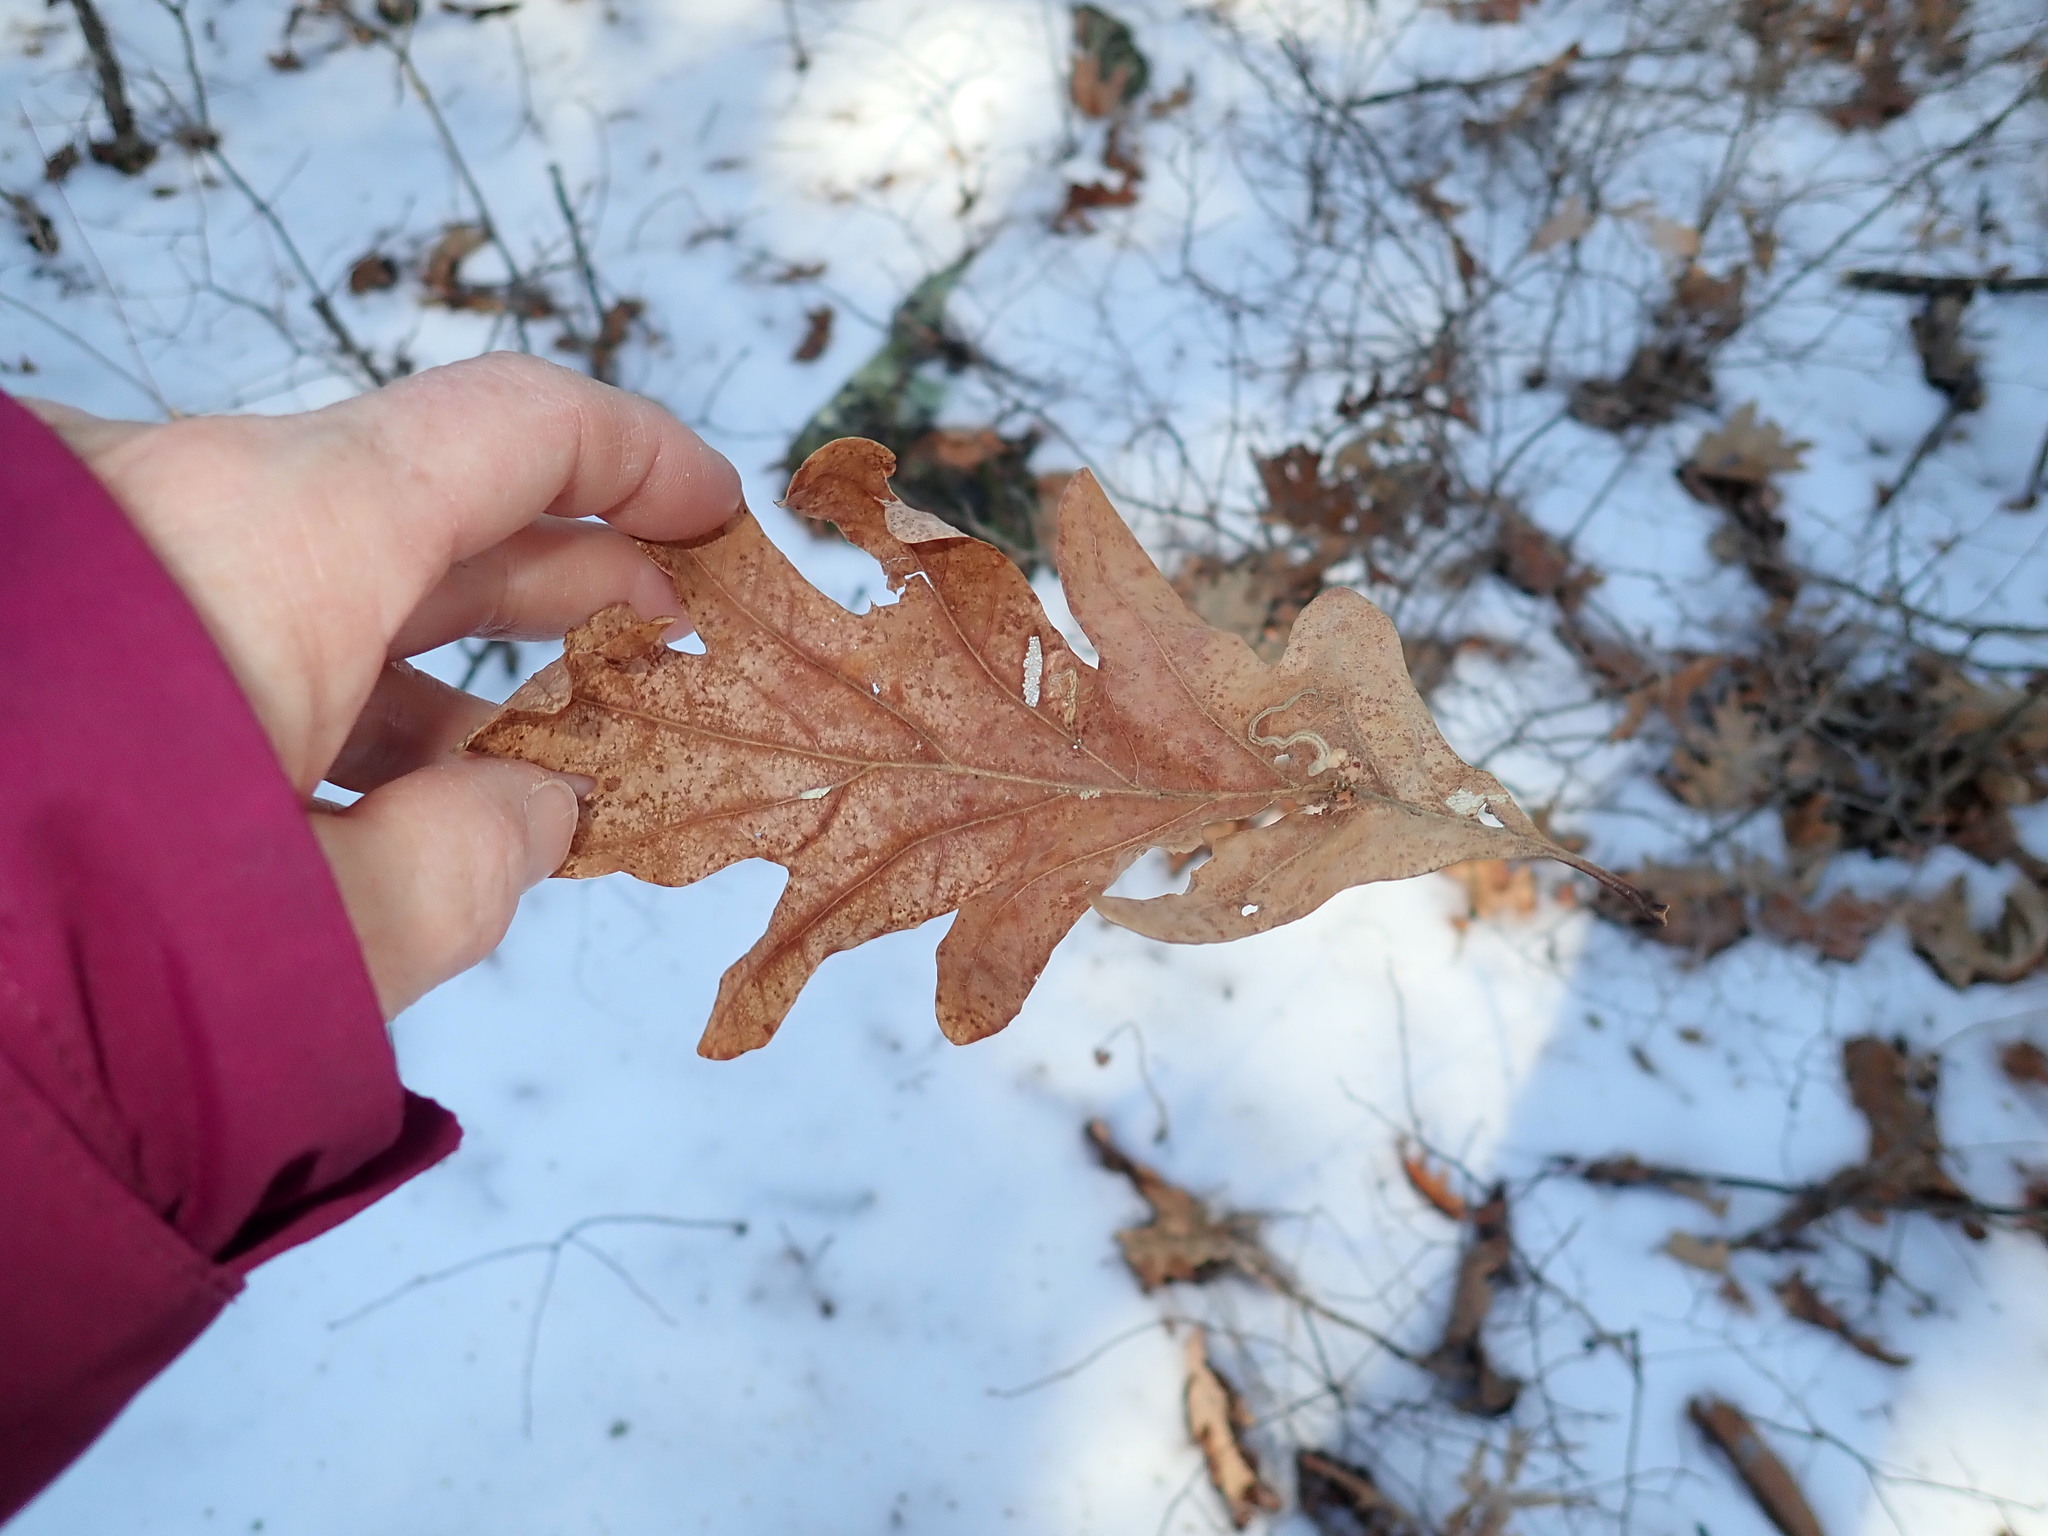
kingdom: Plantae
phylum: Tracheophyta
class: Magnoliopsida
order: Fagales
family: Fagaceae
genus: Quercus
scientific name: Quercus alba
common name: White oak
